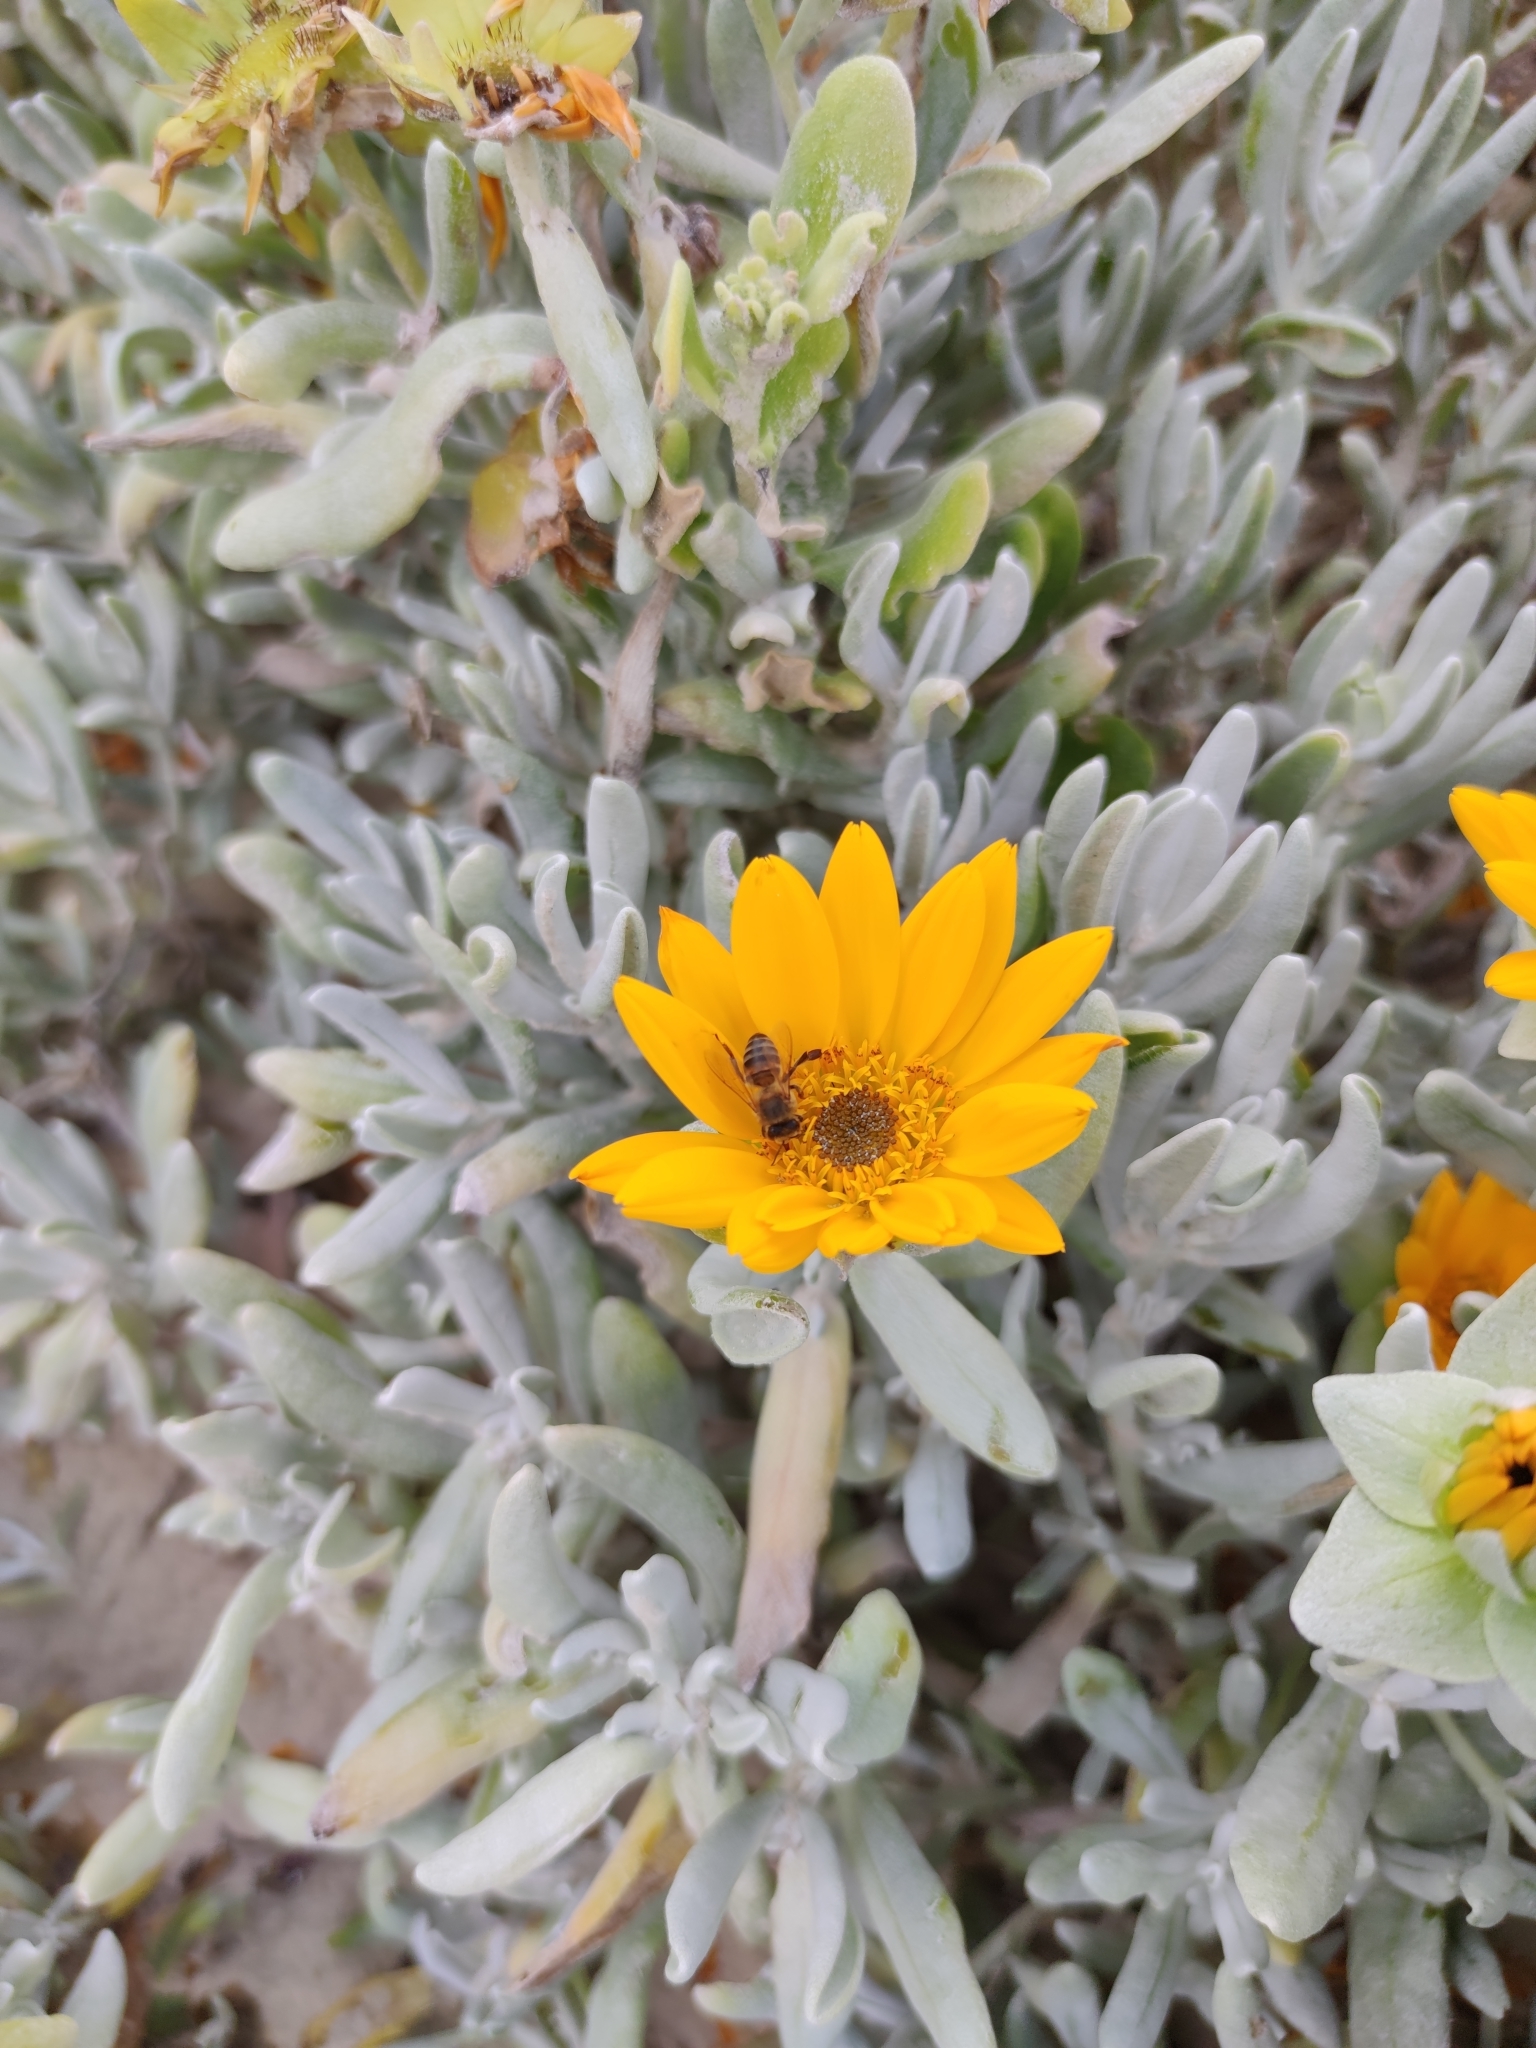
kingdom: Animalia
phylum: Arthropoda
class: Insecta
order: Hymenoptera
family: Apidae
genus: Apis
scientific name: Apis mellifera
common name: Honey bee
